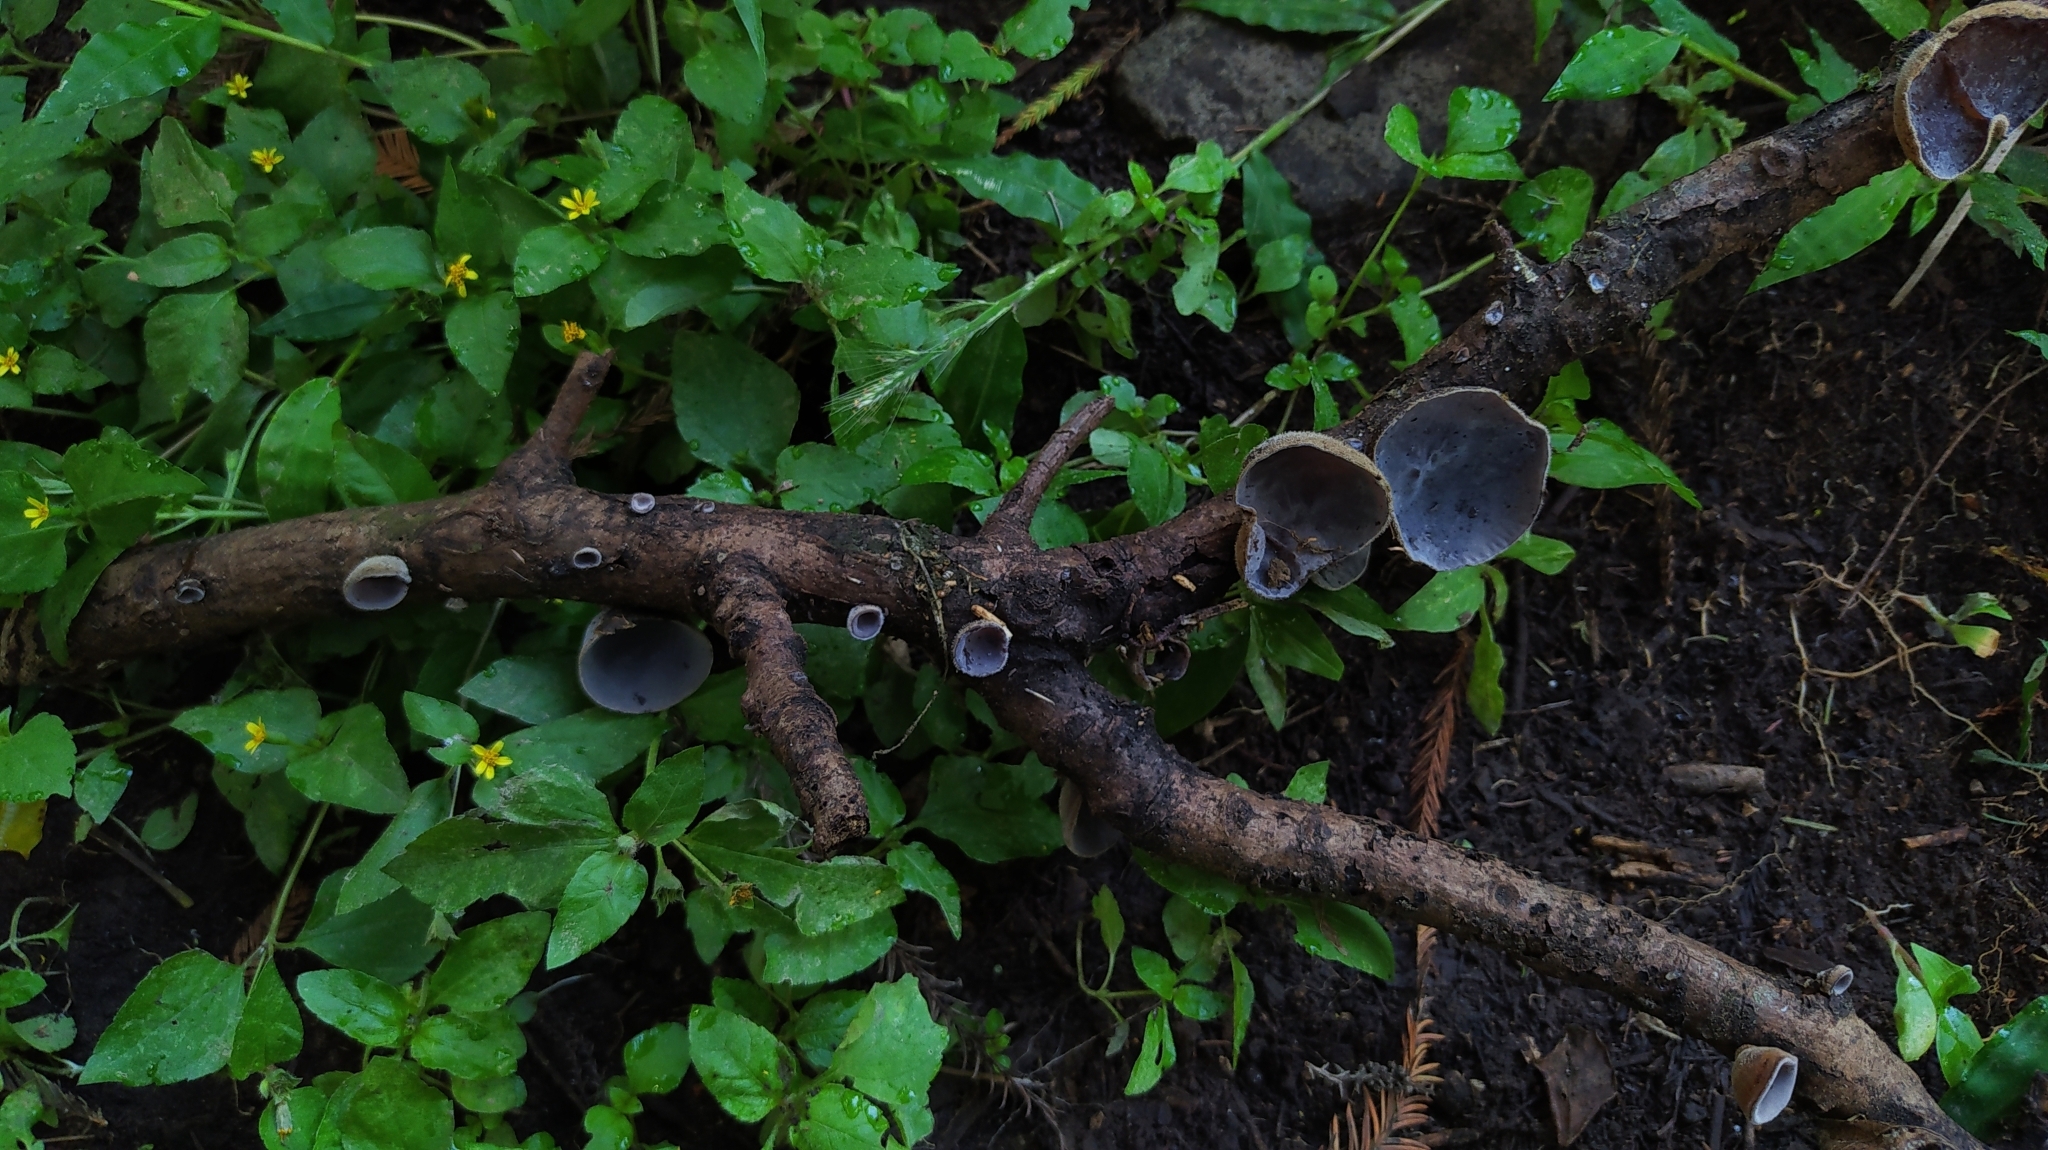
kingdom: Fungi
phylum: Basidiomycota
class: Agaricomycetes
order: Auriculariales
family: Auriculariaceae
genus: Auricularia
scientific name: Auricularia nigricans
